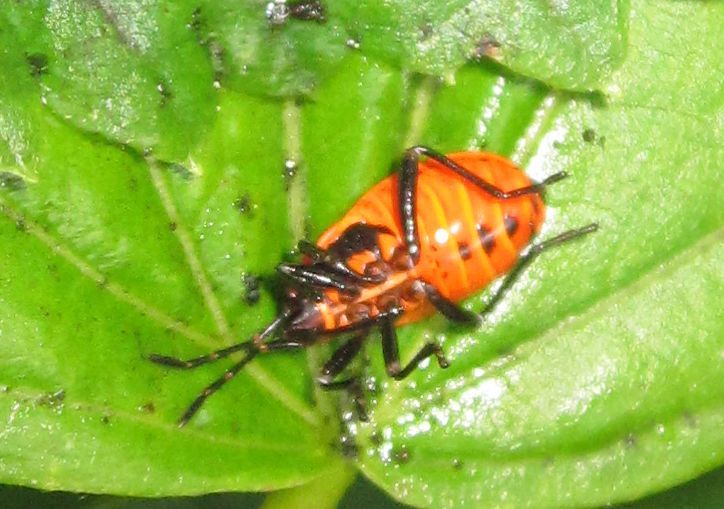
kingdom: Animalia
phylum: Arthropoda
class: Insecta
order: Hemiptera
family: Pyrrhocoridae
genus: Pyrrhocoris
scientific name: Pyrrhocoris apterus
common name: Firebug
